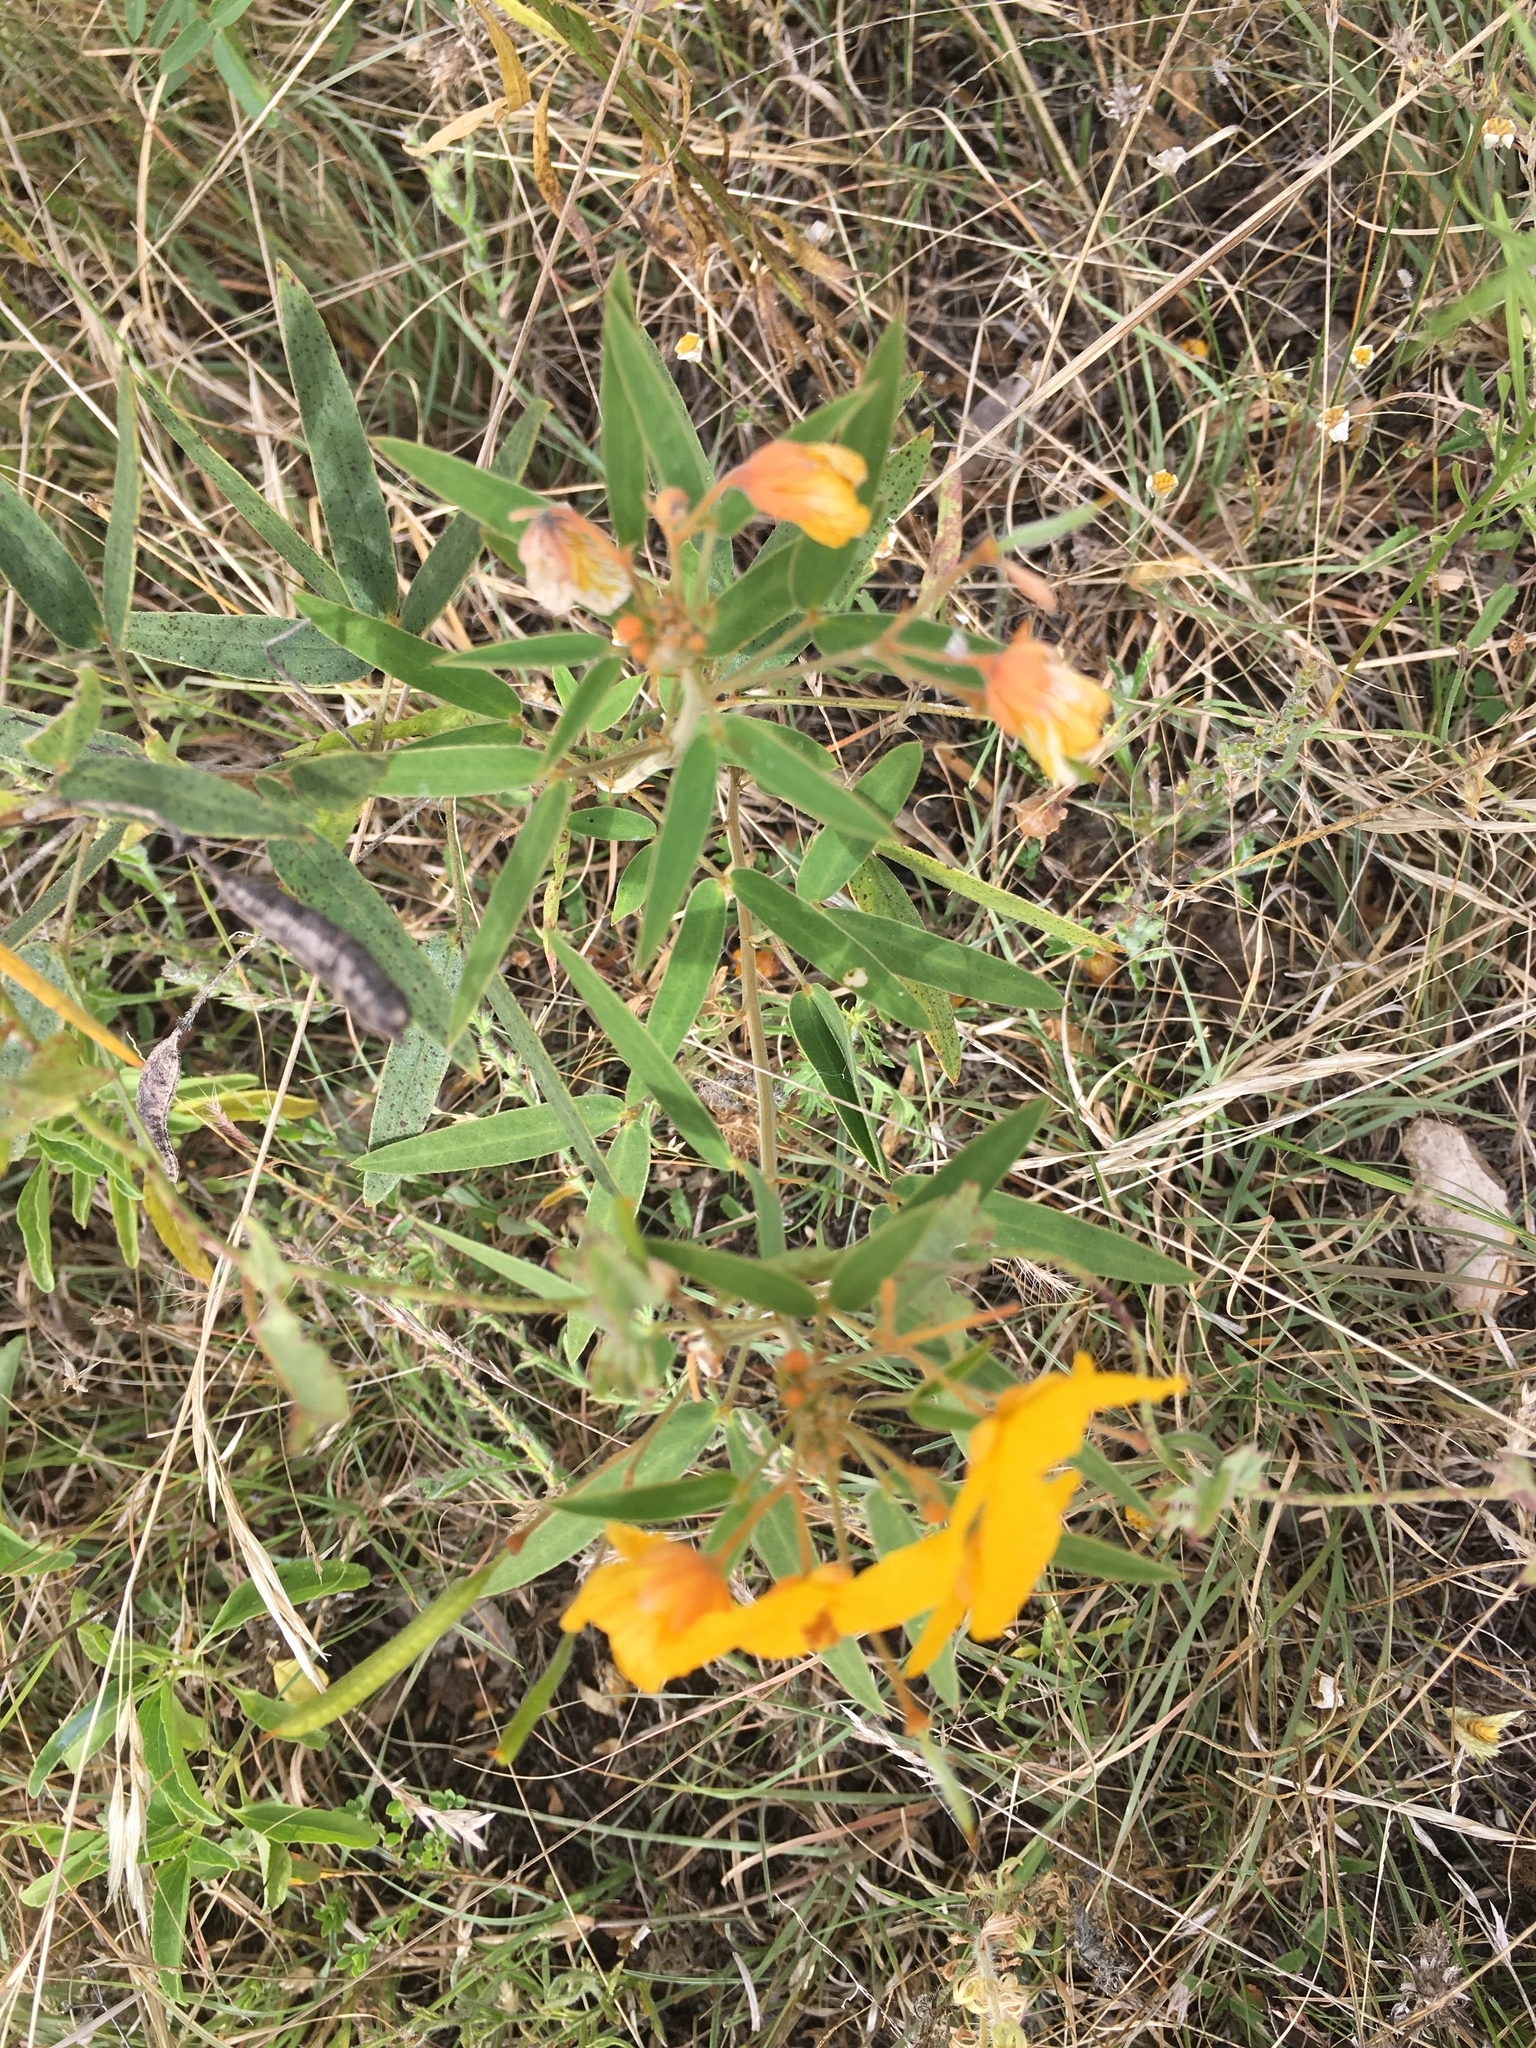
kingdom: Plantae
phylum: Tracheophyta
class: Magnoliopsida
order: Fabales
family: Fabaceae
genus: Senna
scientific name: Senna roemeriana
